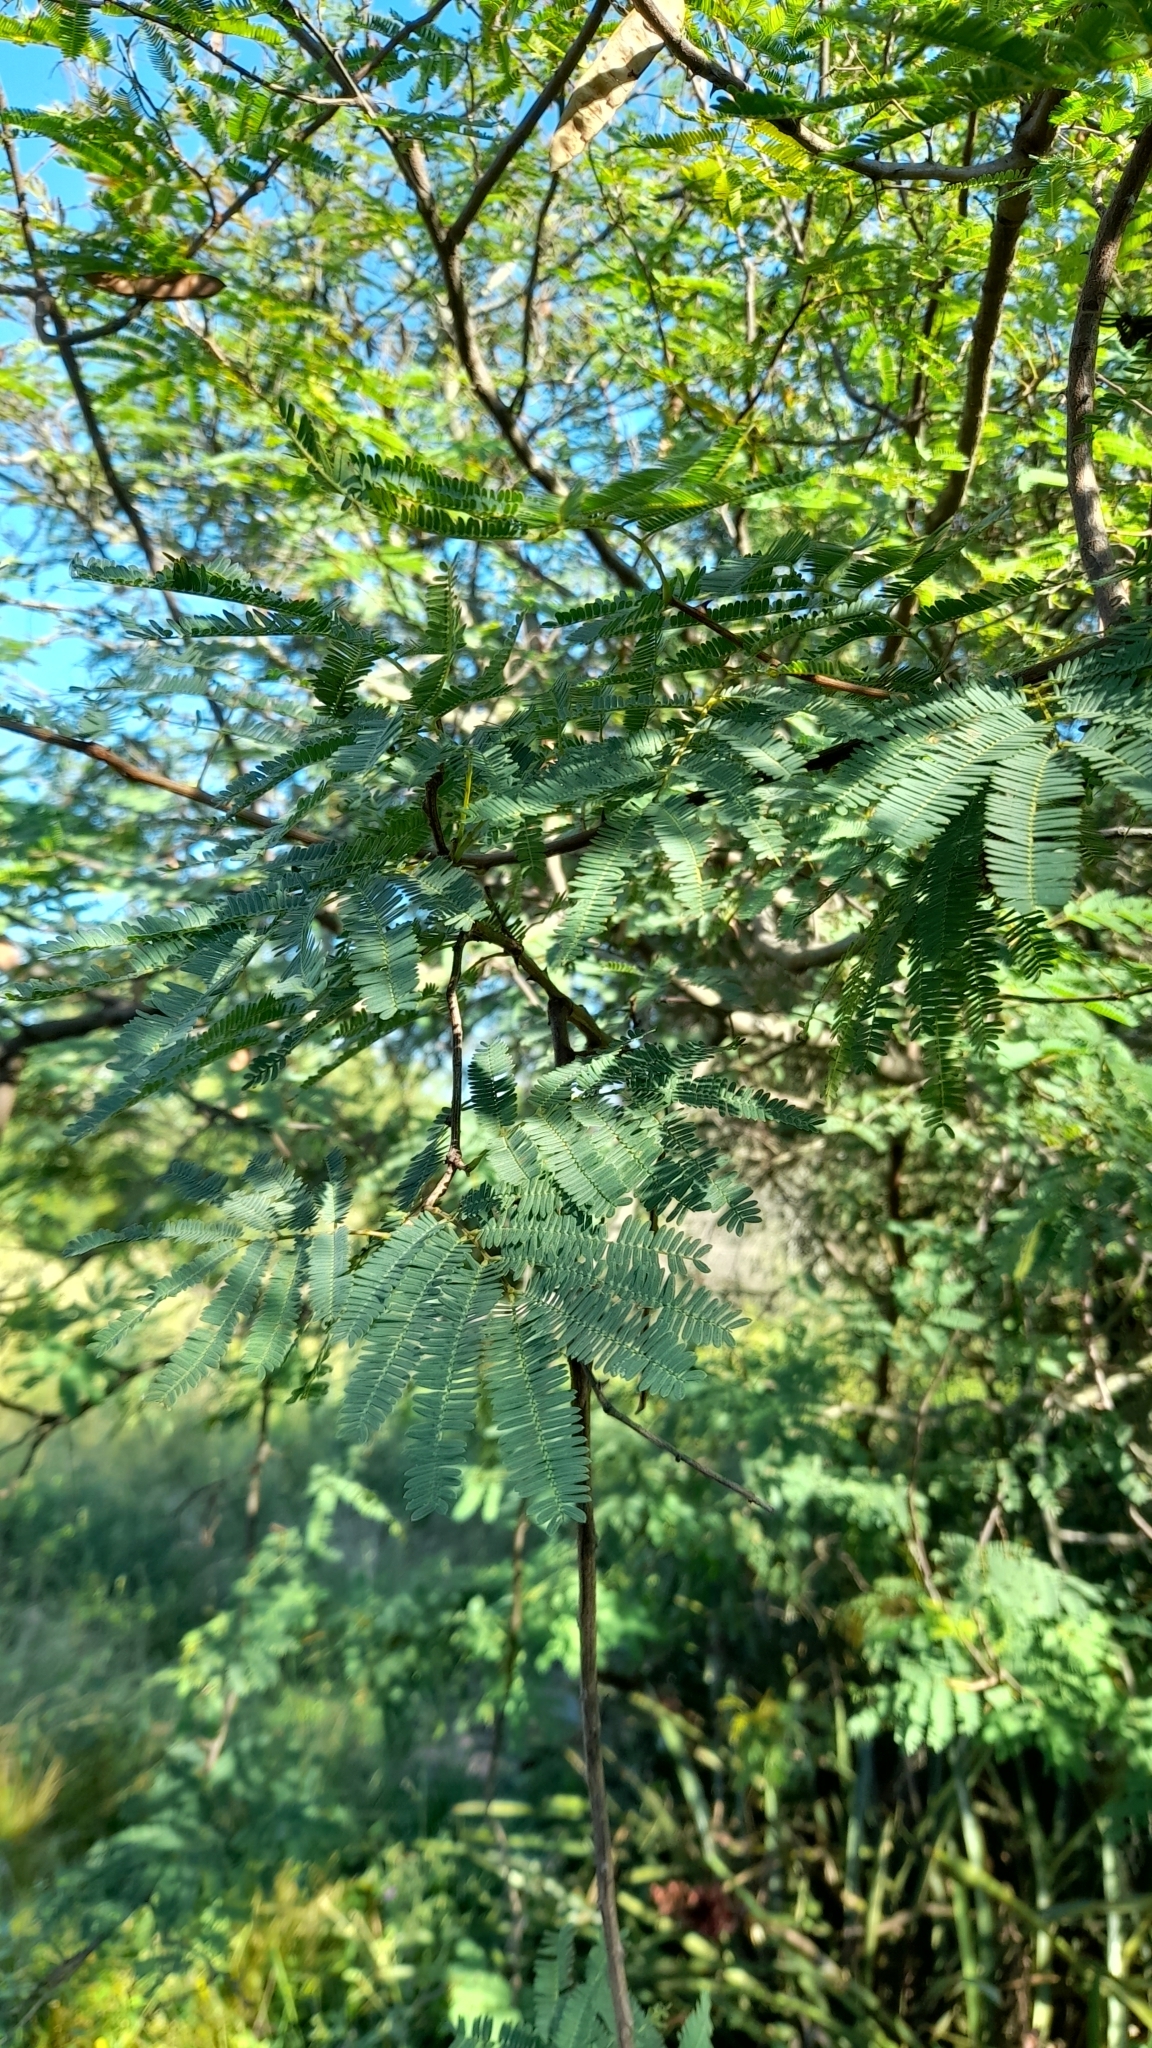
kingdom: Plantae
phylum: Tracheophyta
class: Magnoliopsida
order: Fabales
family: Fabaceae
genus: Senegalia
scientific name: Senegalia praecox
